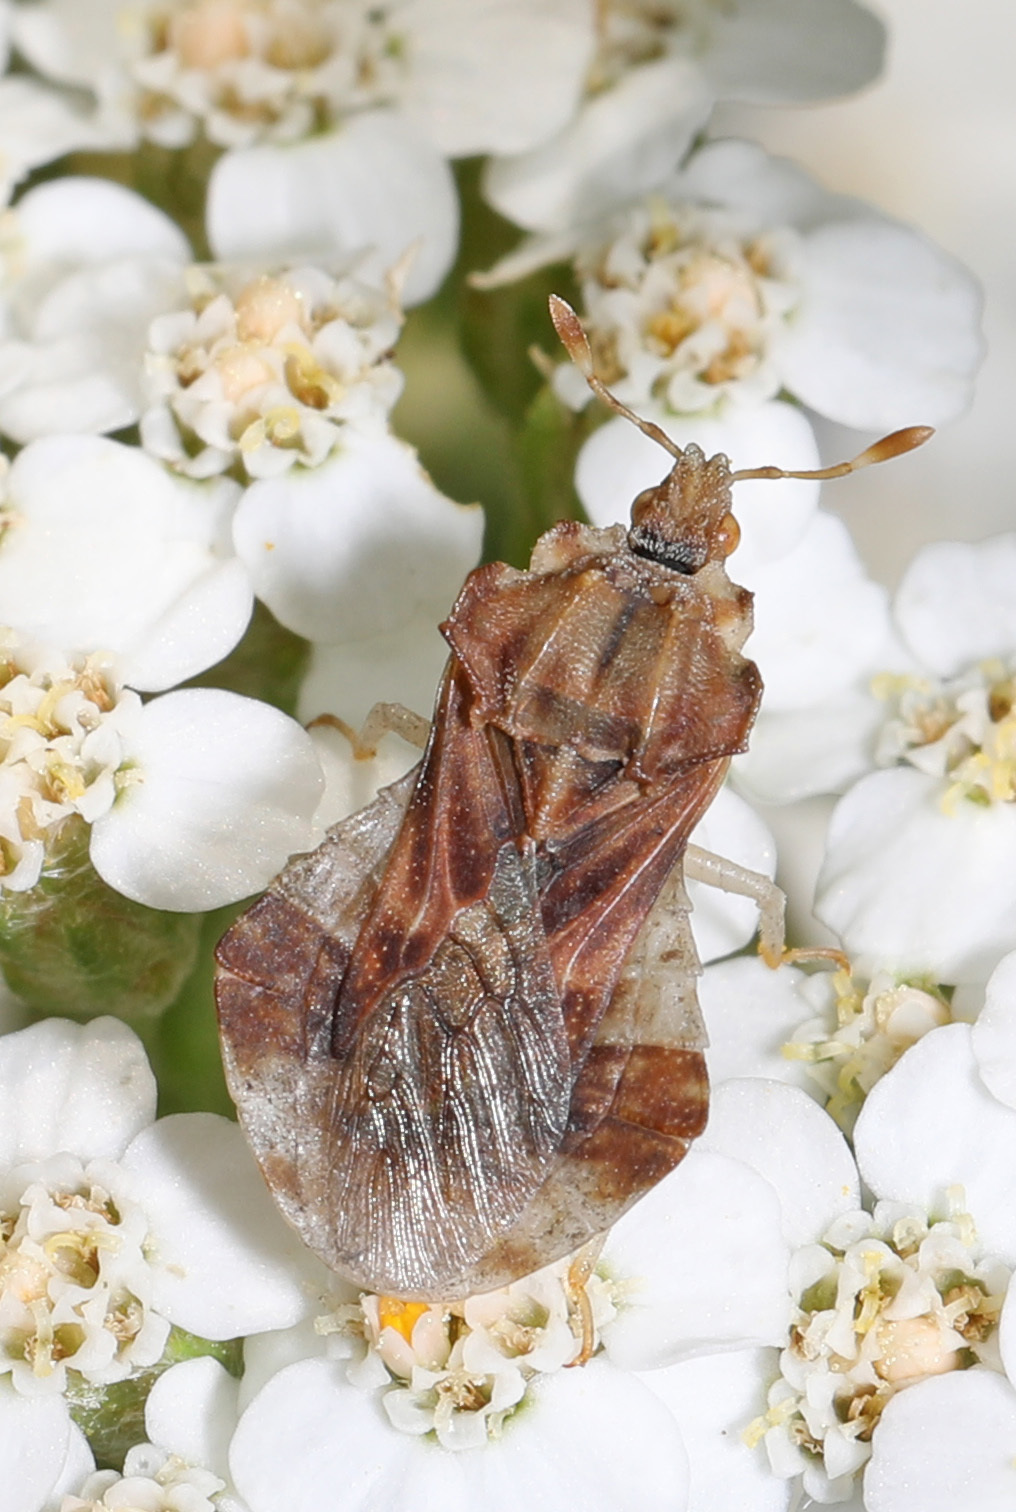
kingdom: Animalia
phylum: Arthropoda
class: Insecta
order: Hemiptera
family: Reduviidae
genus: Phymata
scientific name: Phymata fasciata
